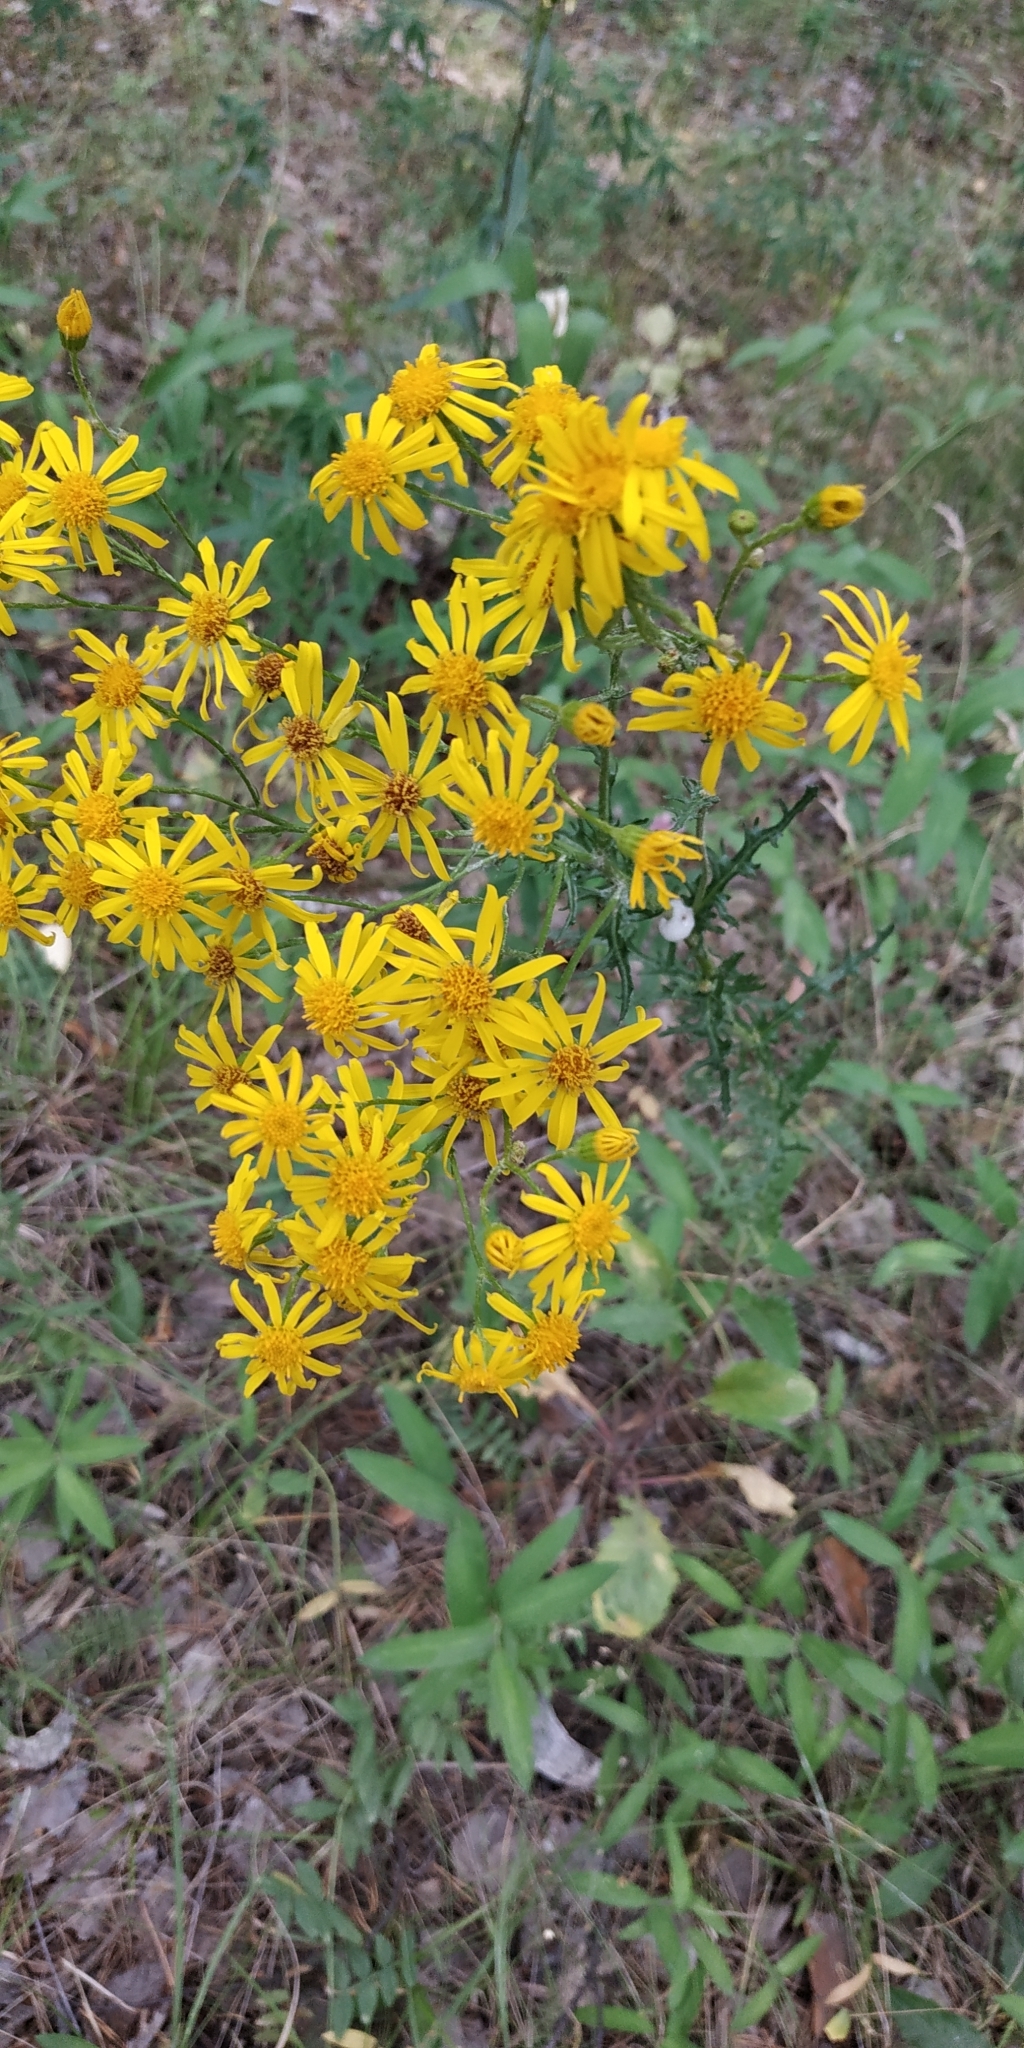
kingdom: Plantae
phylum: Tracheophyta
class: Magnoliopsida
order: Asterales
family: Asteraceae
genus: Jacobaea
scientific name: Jacobaea vulgaris
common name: Stinking willie
